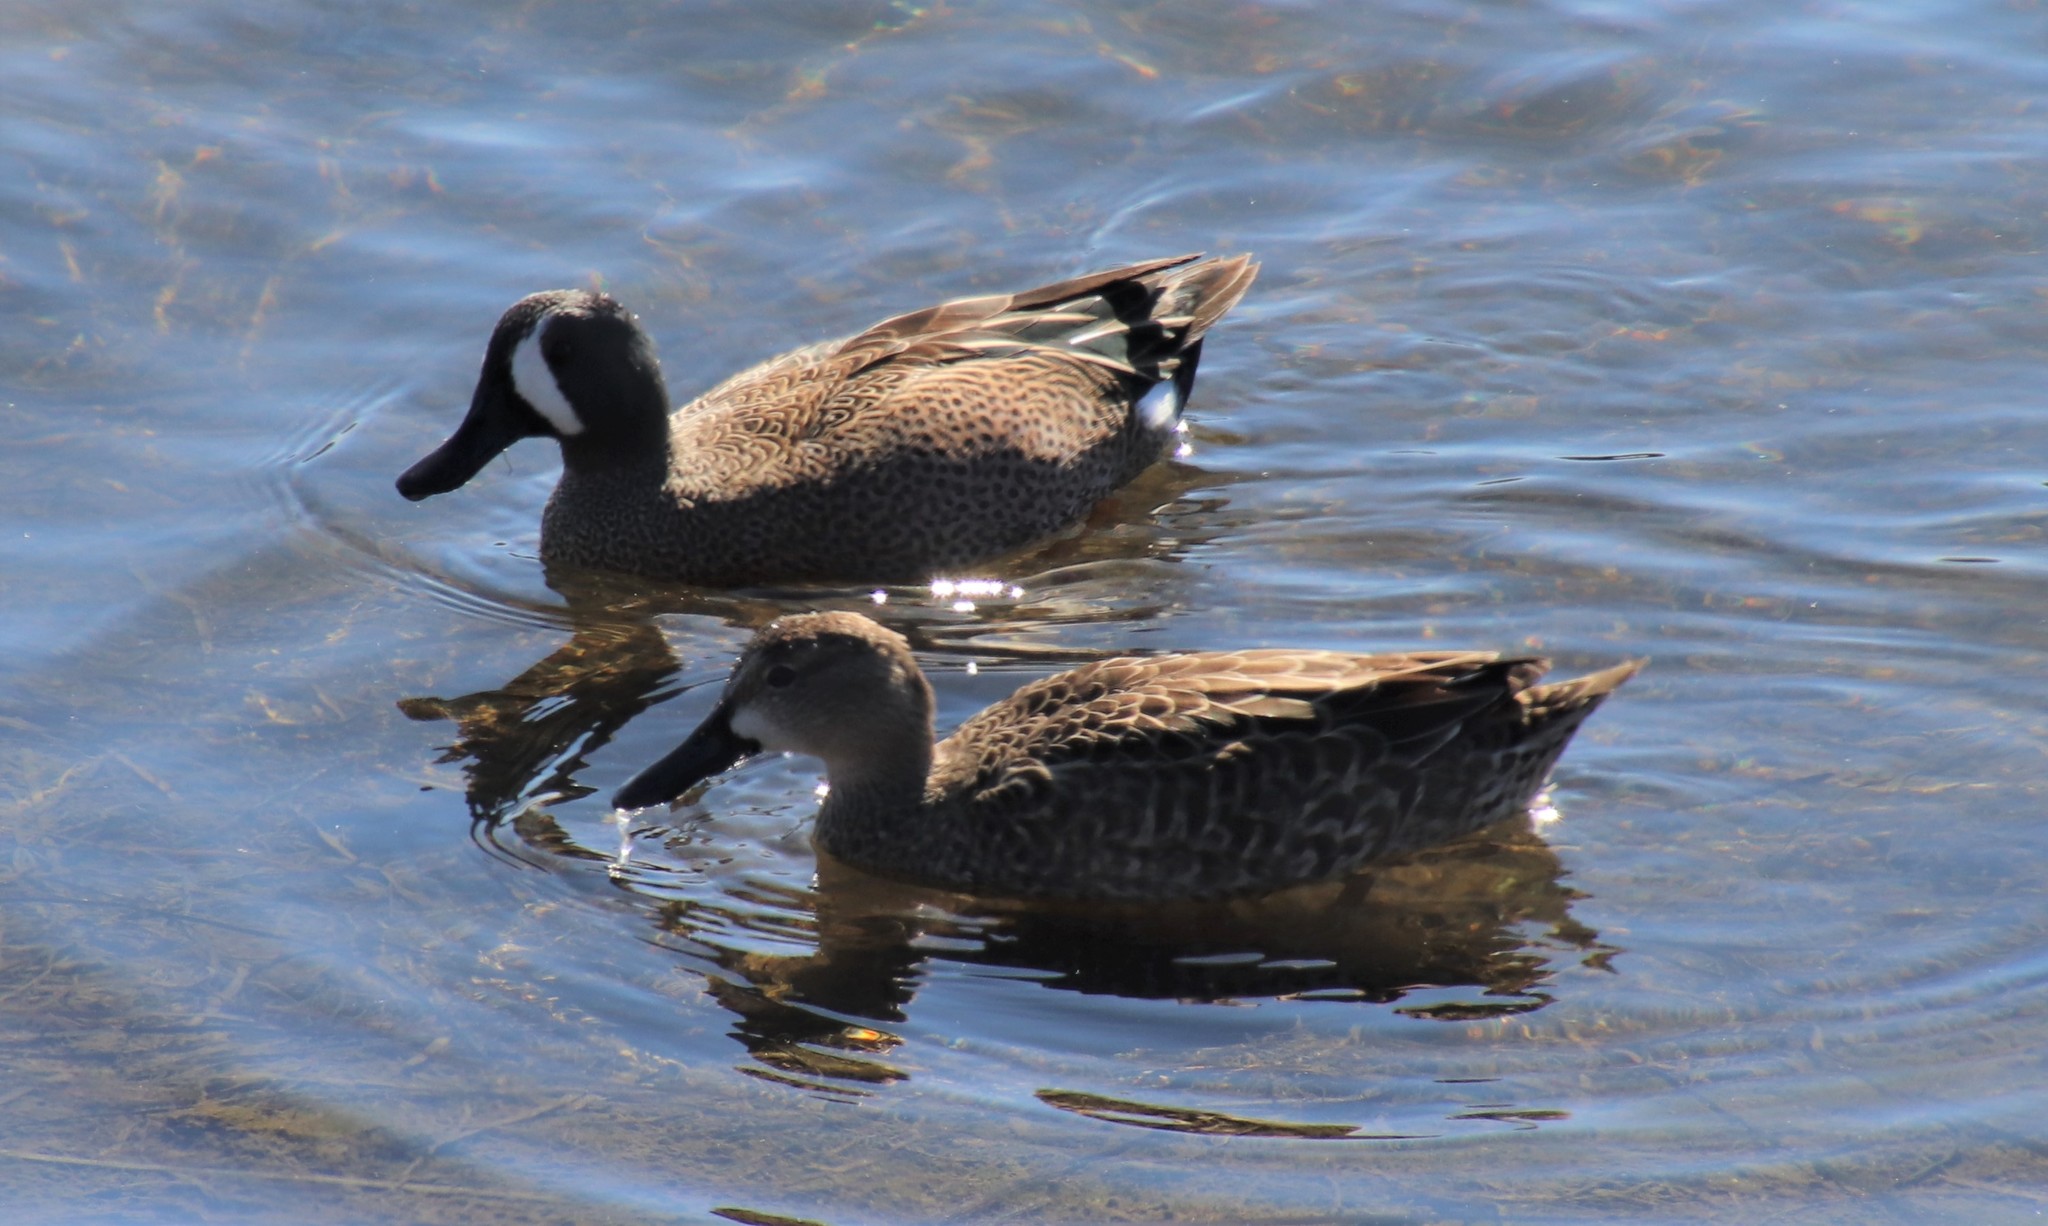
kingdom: Animalia
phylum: Chordata
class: Aves
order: Anseriformes
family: Anatidae
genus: Spatula
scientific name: Spatula discors
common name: Blue-winged teal
